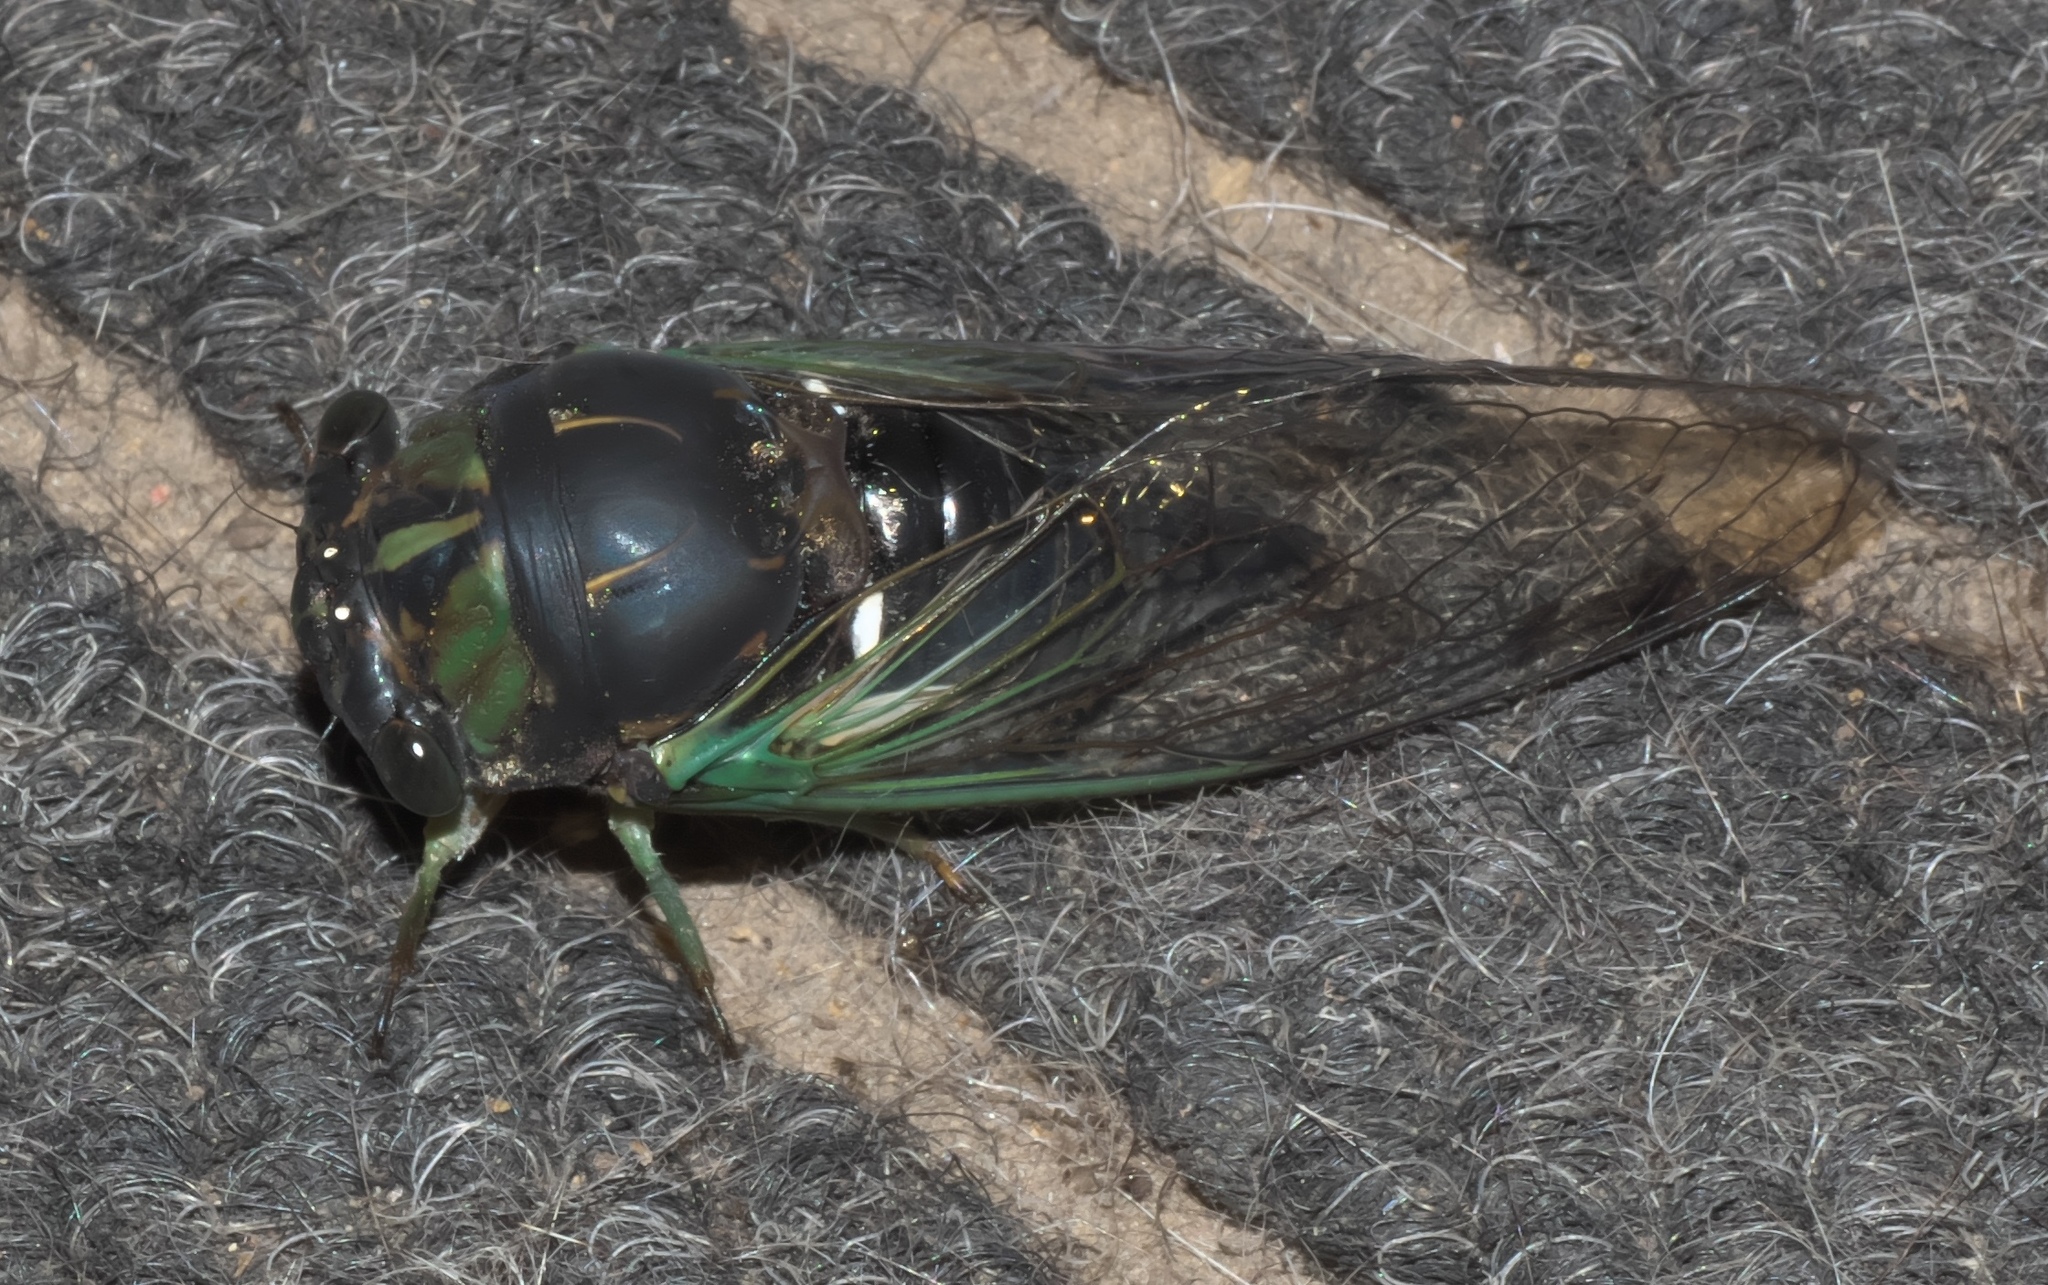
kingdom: Animalia
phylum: Arthropoda
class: Insecta
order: Hemiptera
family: Cicadidae
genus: Neotibicen
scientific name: Neotibicen tibicen
